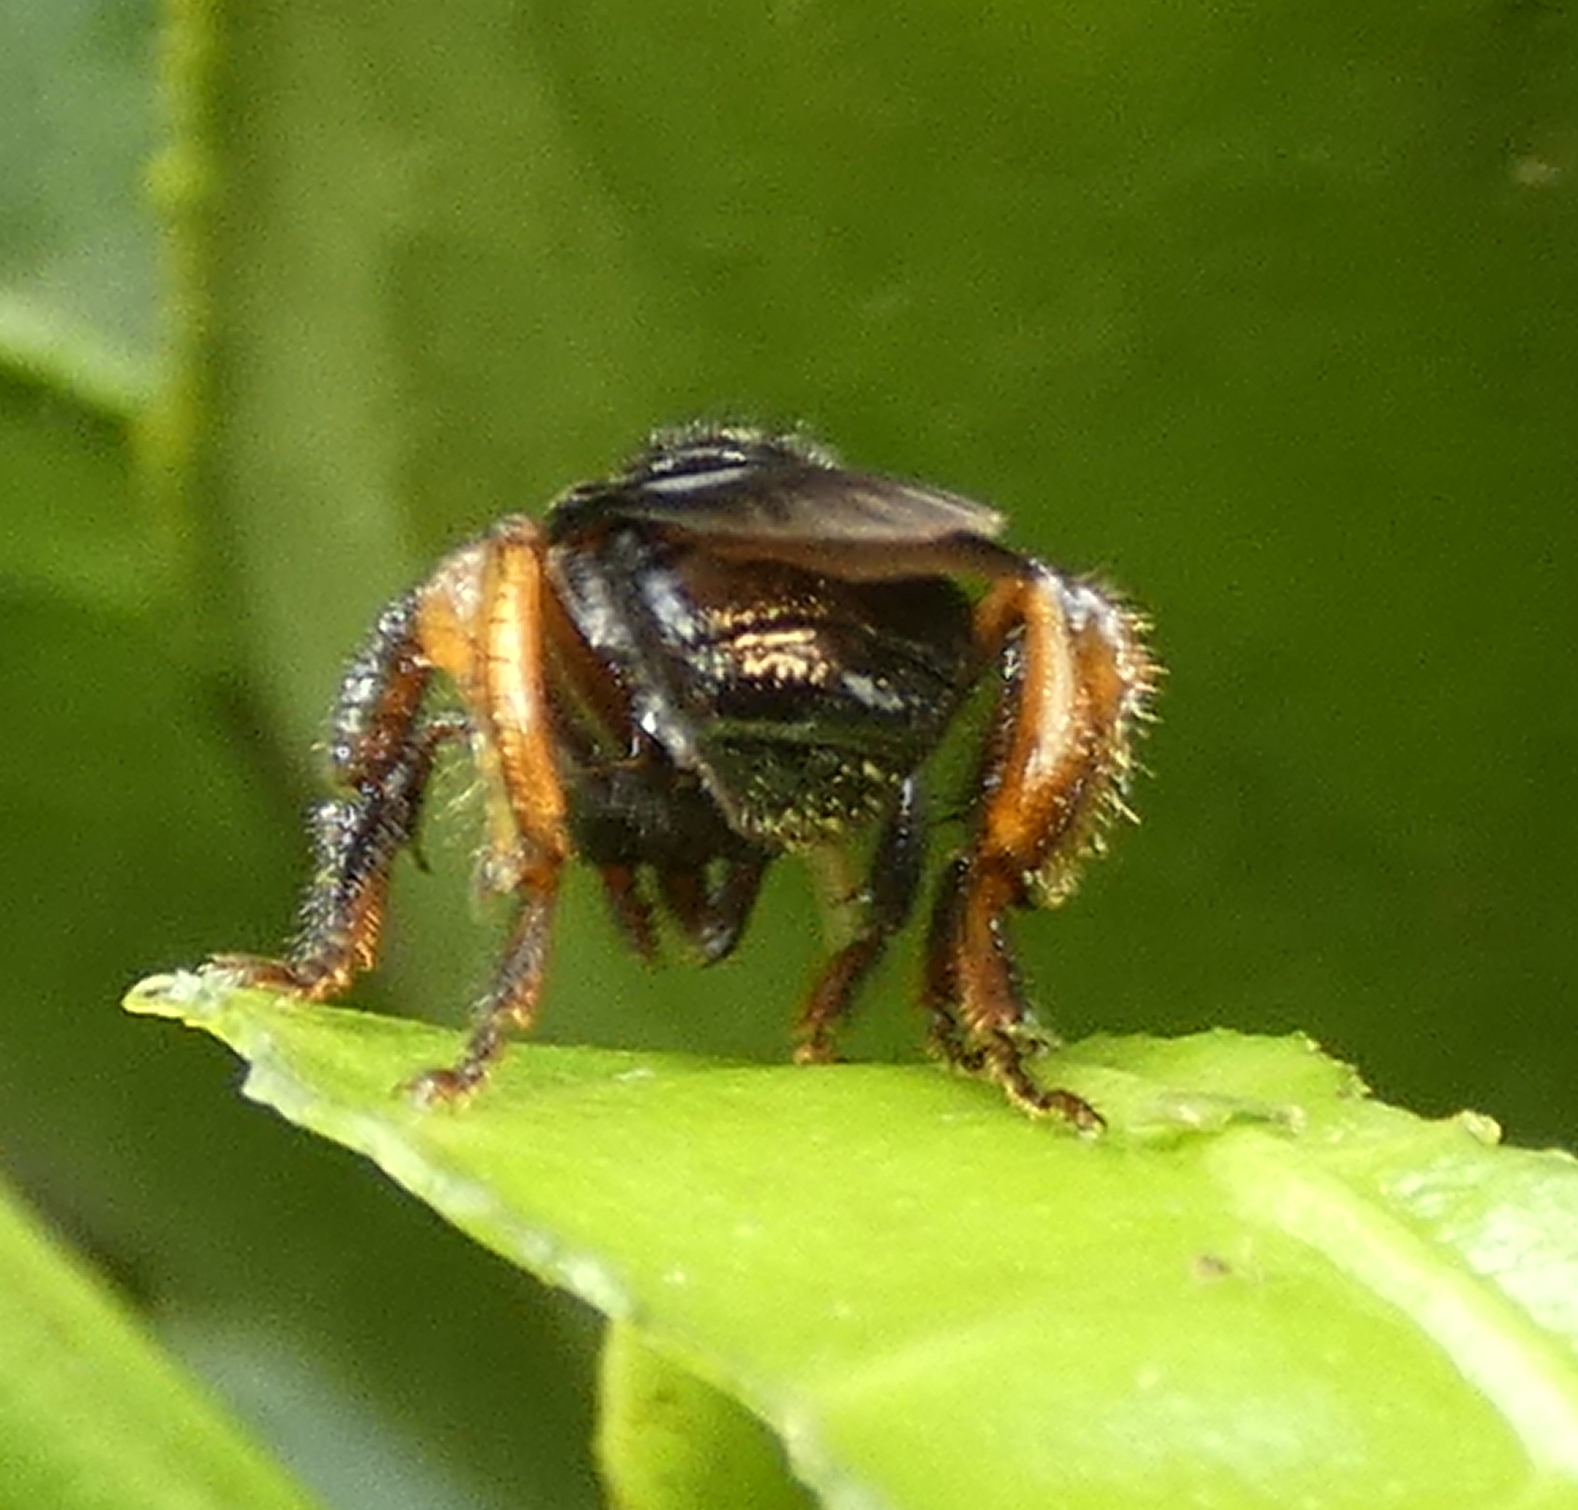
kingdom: Animalia
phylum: Arthropoda
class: Insecta
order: Hymenoptera
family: Apidae
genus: Trigona
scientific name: Trigona spinipes
